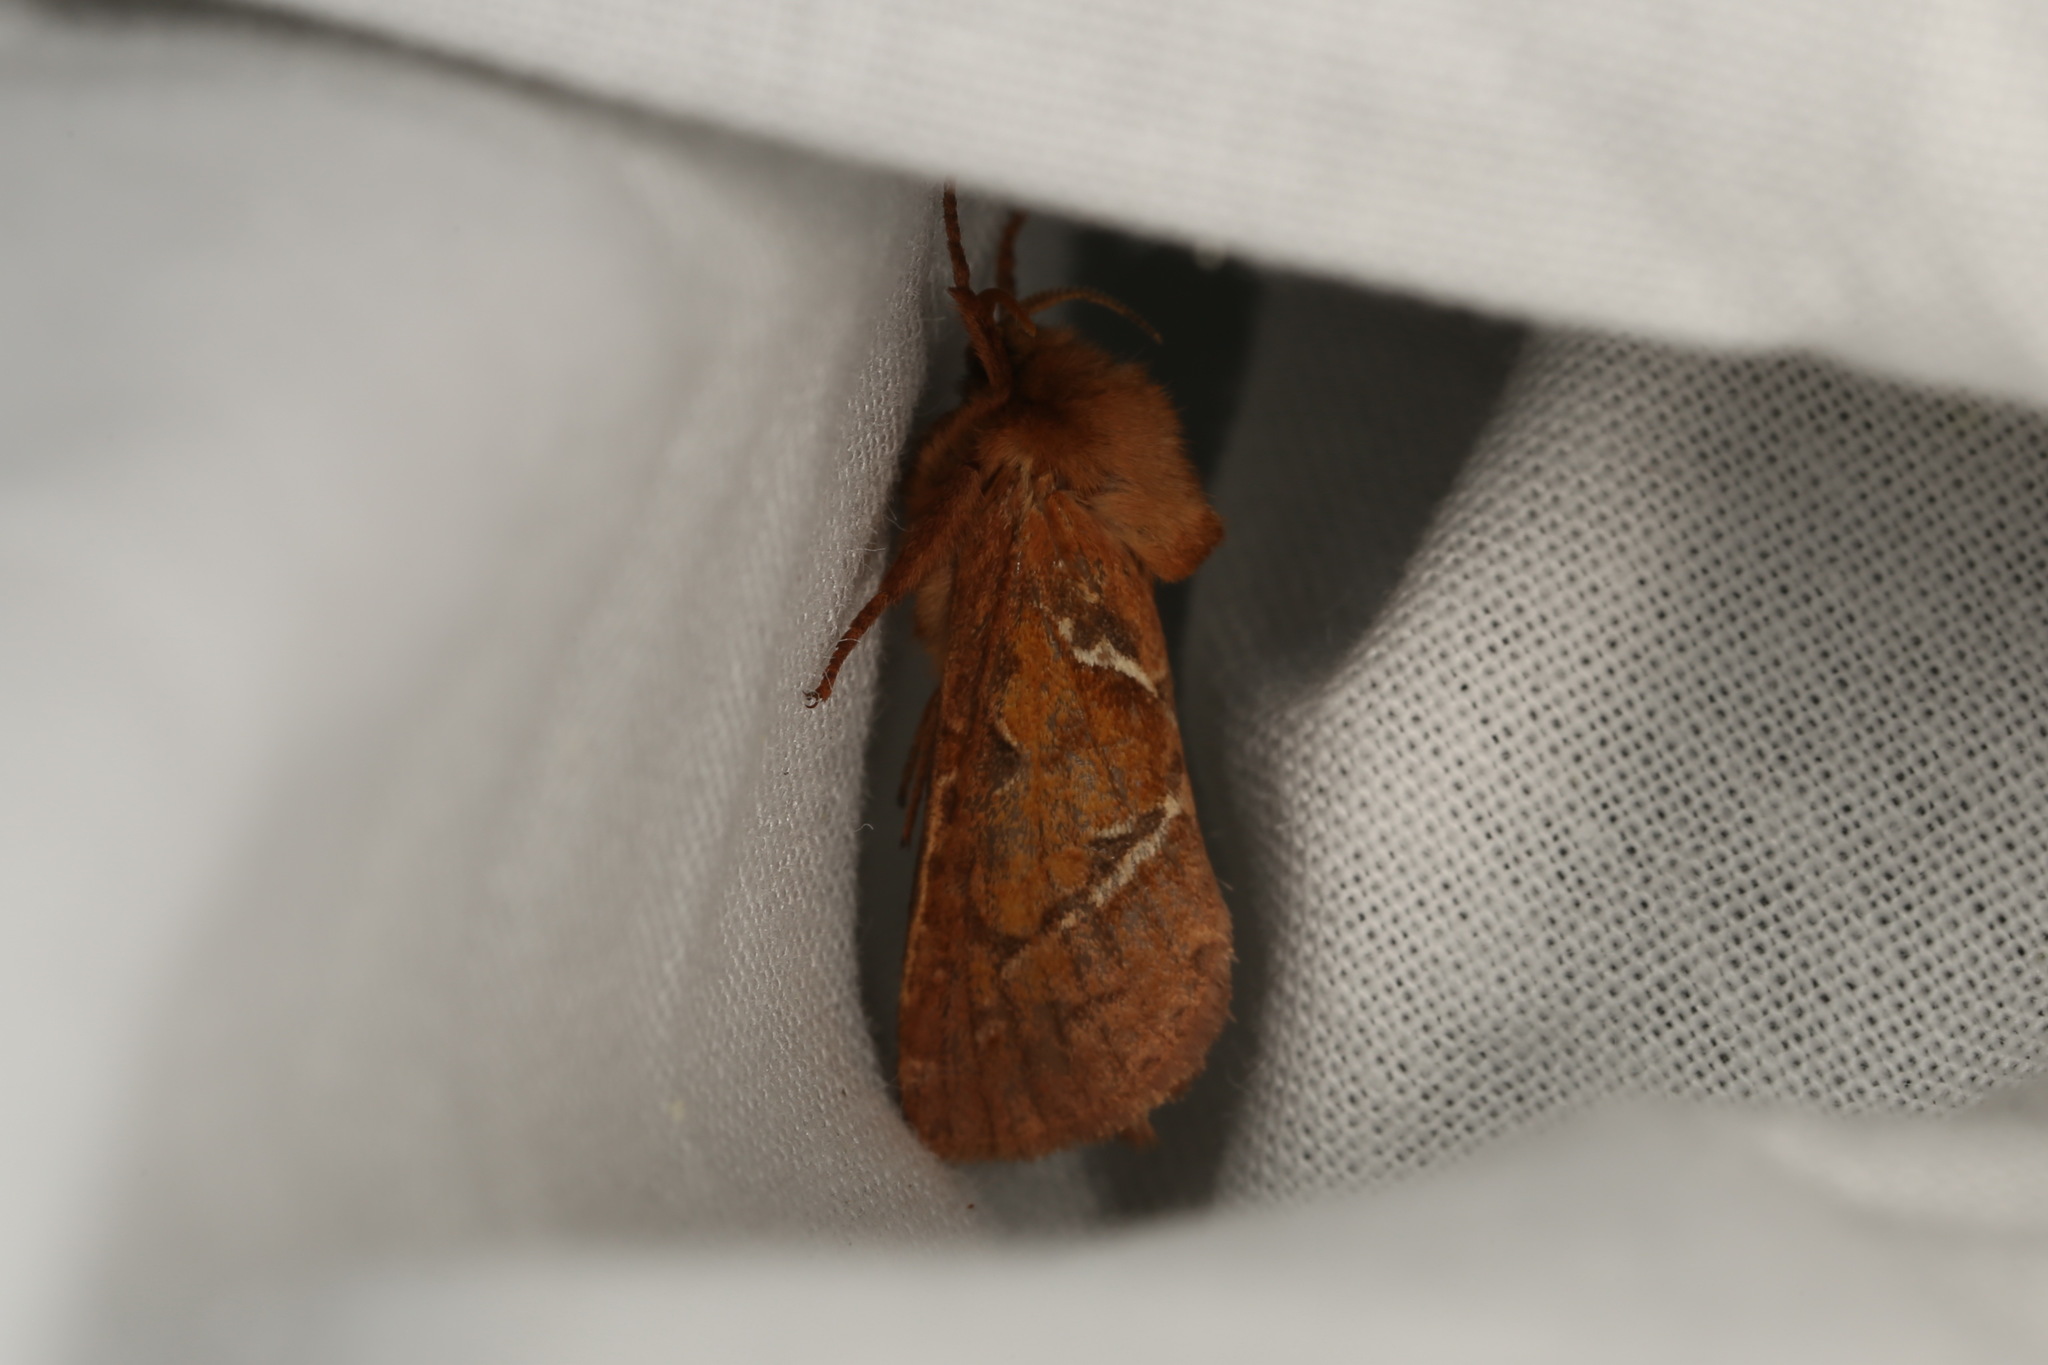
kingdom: Animalia
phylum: Arthropoda
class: Insecta
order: Lepidoptera
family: Hepialidae
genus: Triodia
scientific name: Triodia sylvina
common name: Orange swift
